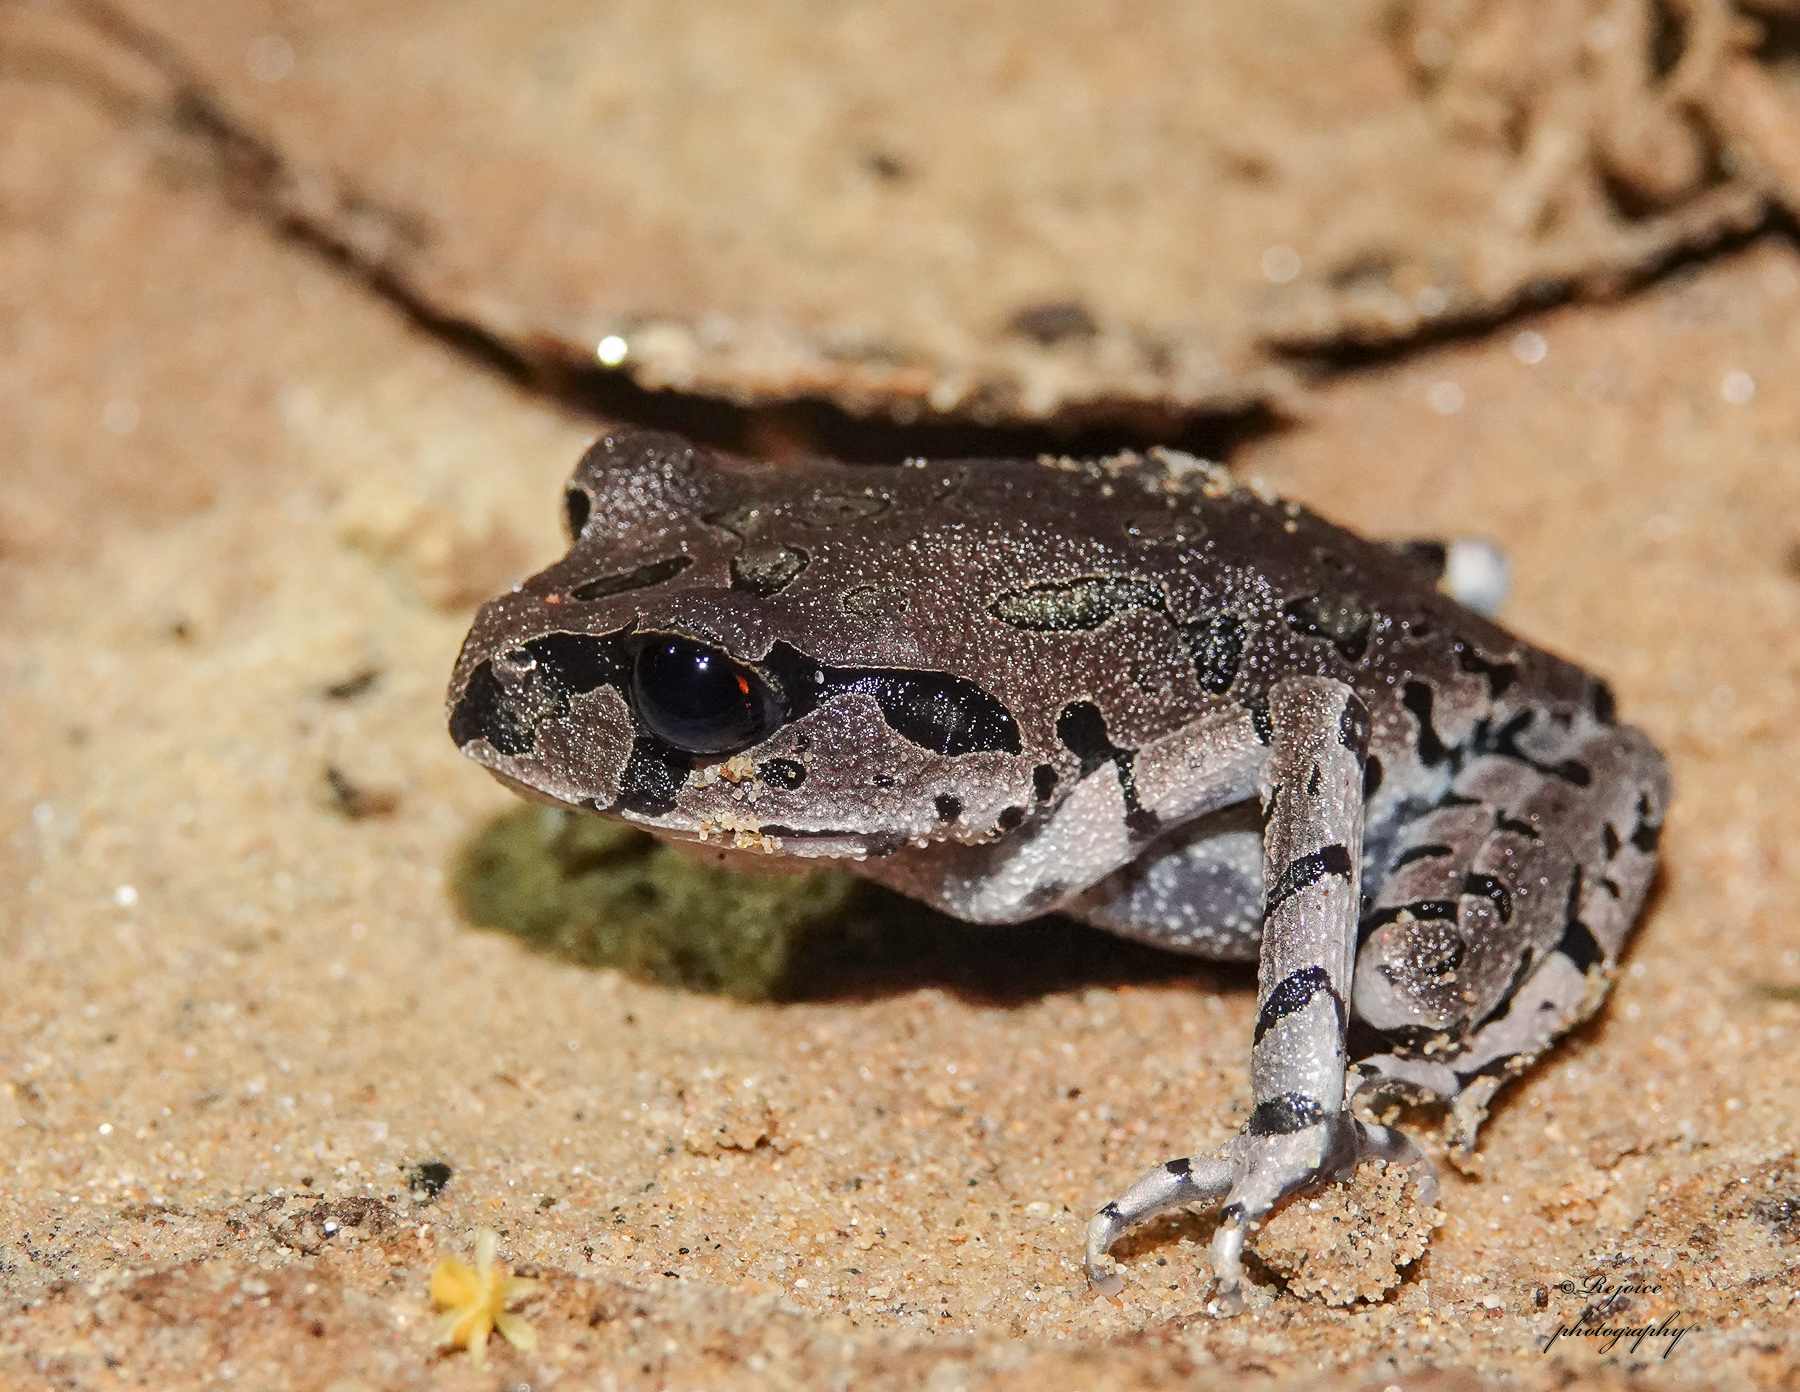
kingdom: Animalia
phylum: Chordata
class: Amphibia
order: Anura
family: Megophryidae
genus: Leptobrachium
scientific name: Leptobrachium rakhinense
